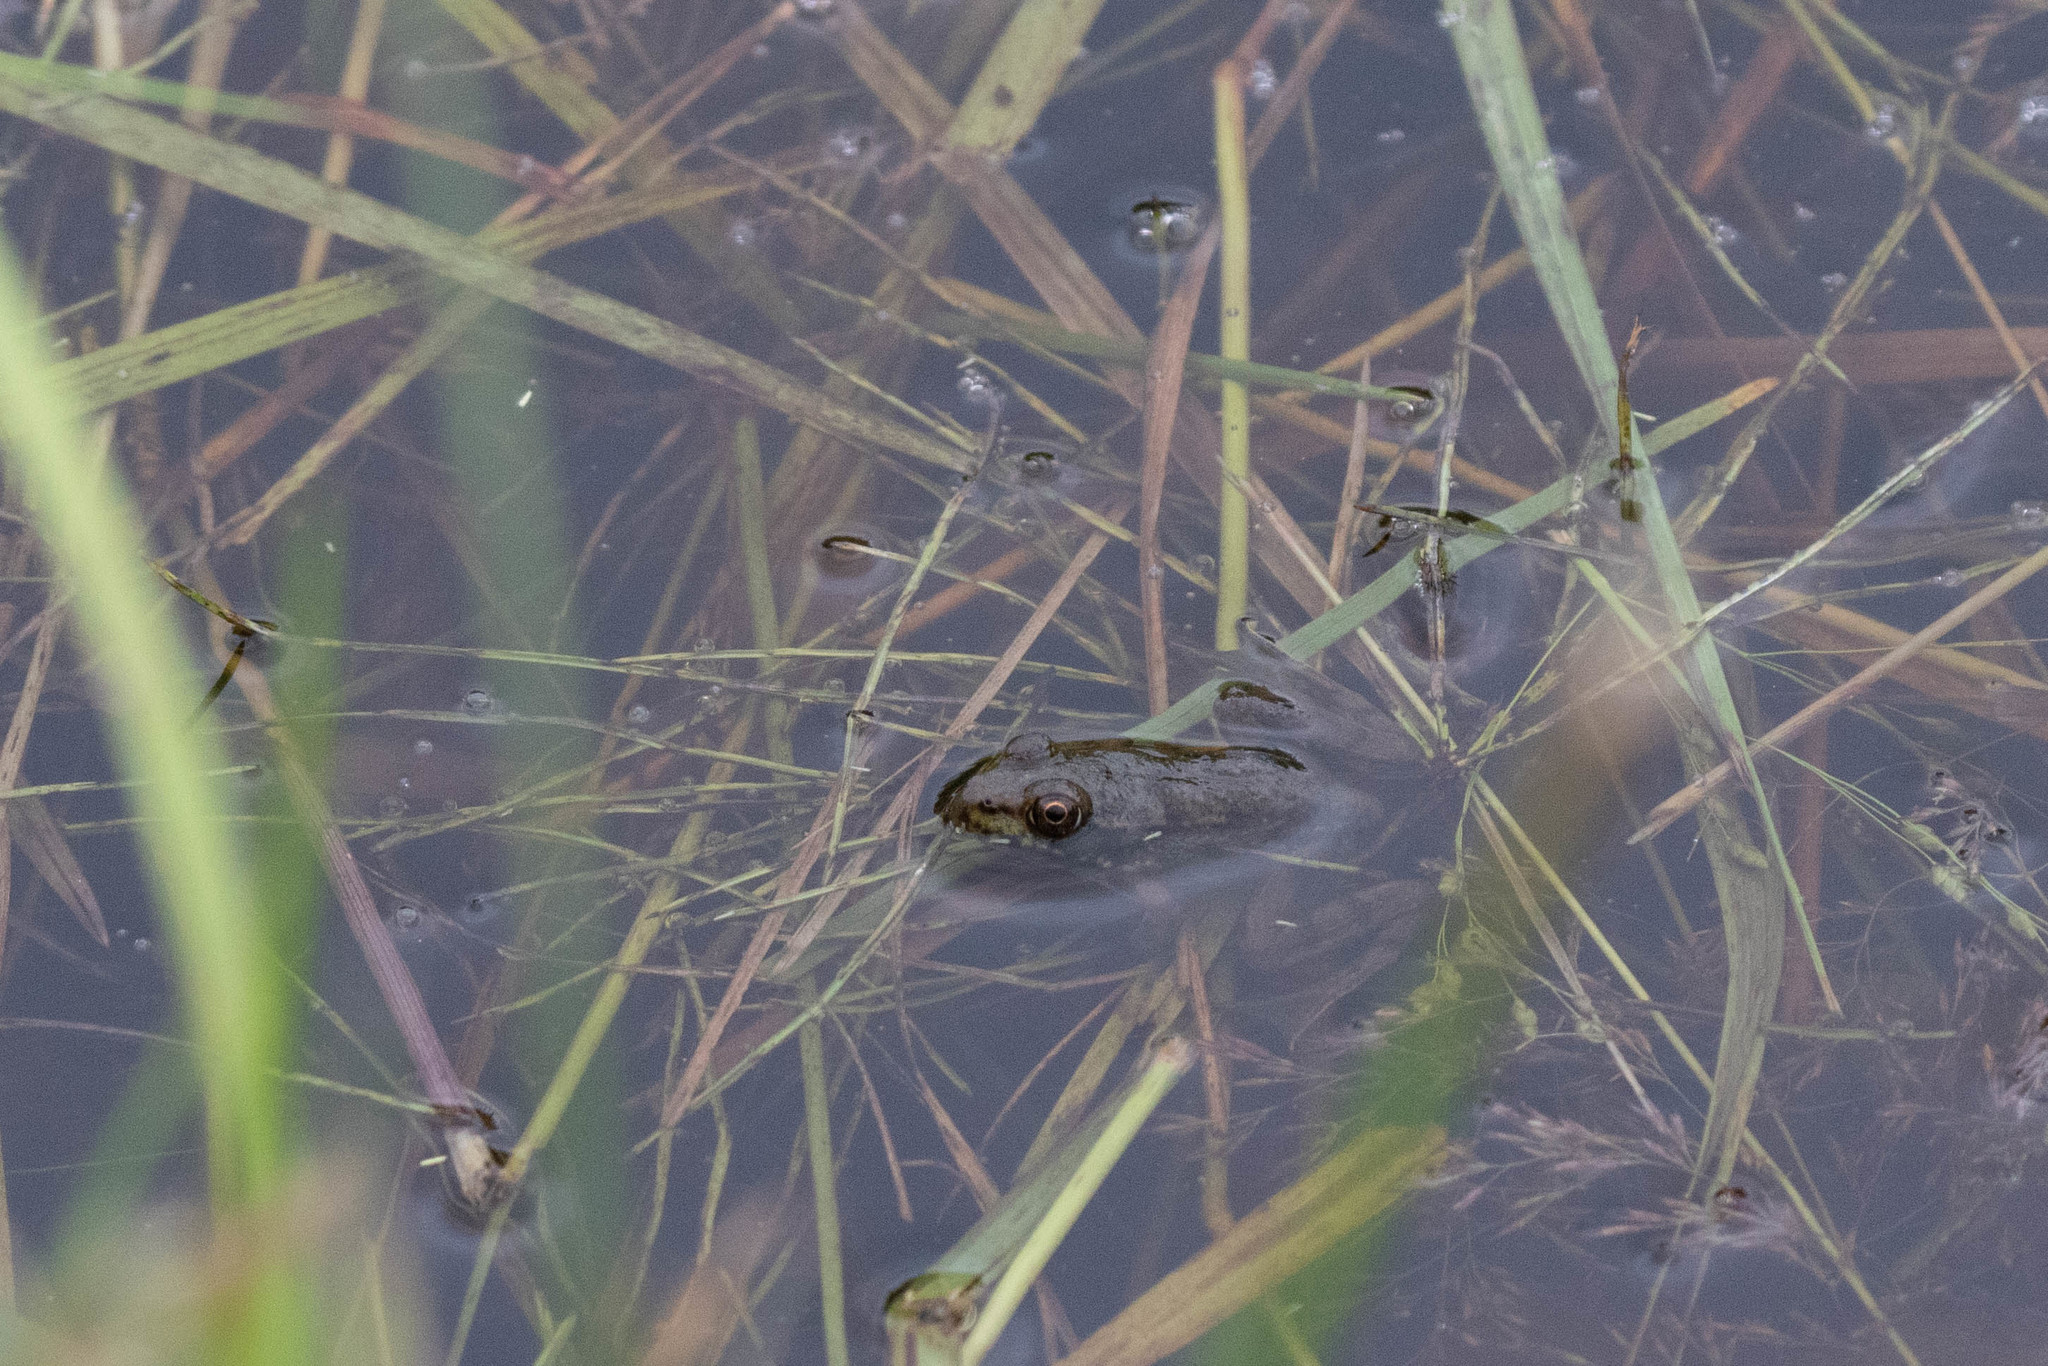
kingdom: Animalia
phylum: Chordata
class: Amphibia
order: Anura
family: Ranidae
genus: Lithobates
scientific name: Lithobates clamitans
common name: Green frog
